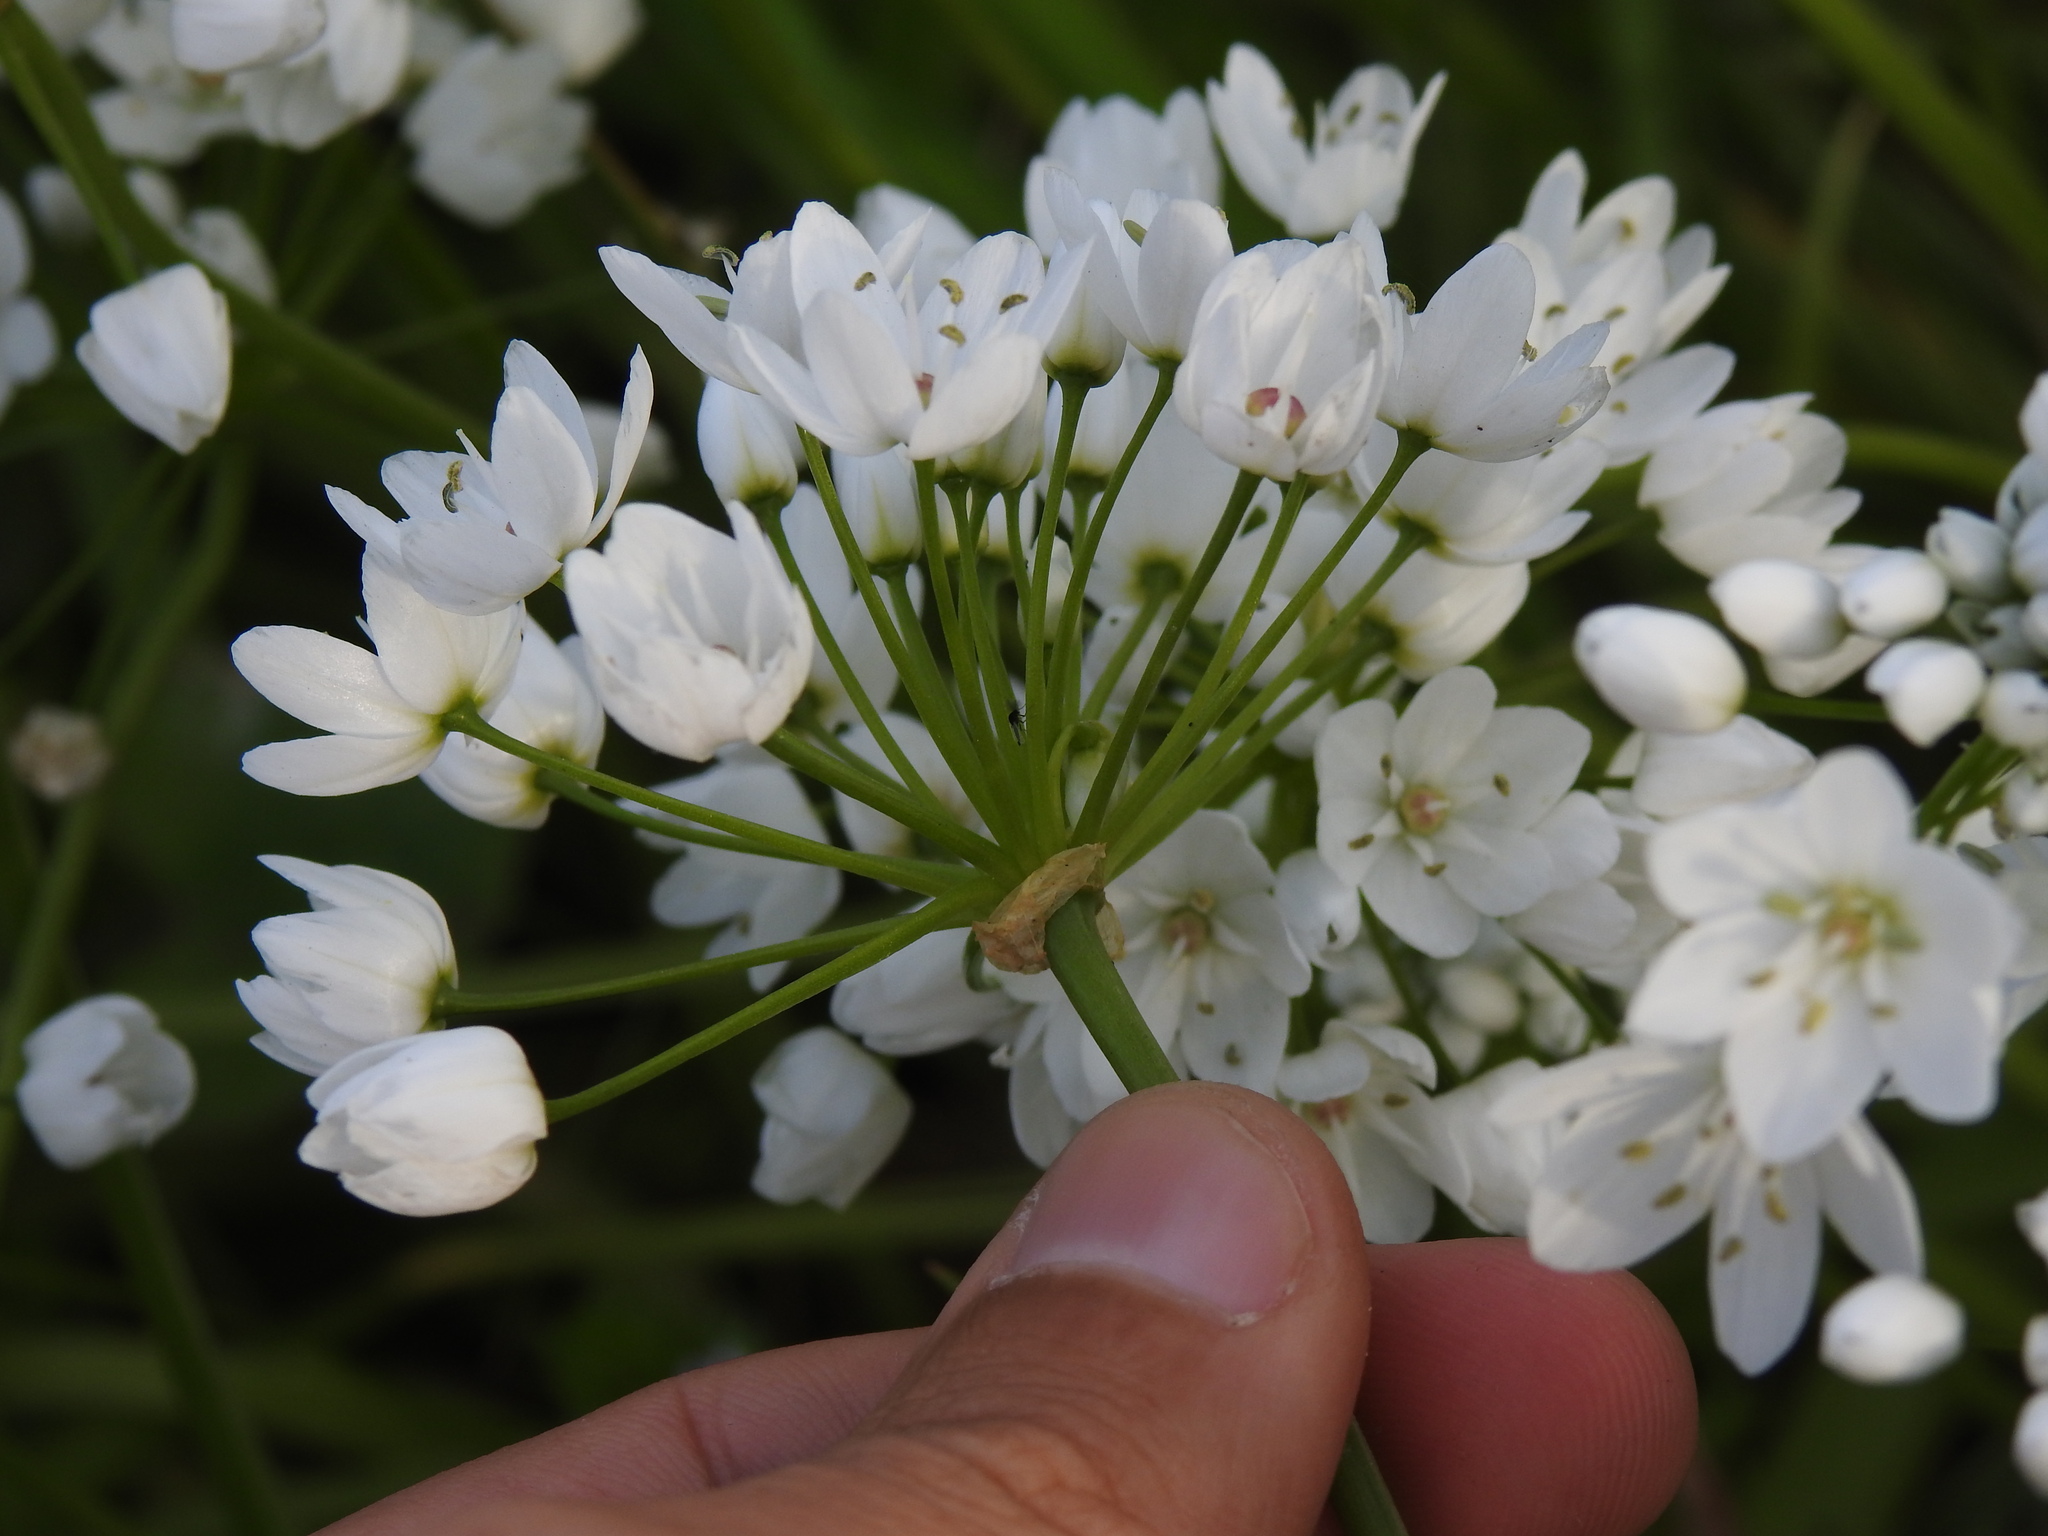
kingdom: Plantae
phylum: Tracheophyta
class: Liliopsida
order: Asparagales
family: Amaryllidaceae
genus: Allium
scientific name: Allium neapolitanum
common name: Neapolitan garlic
